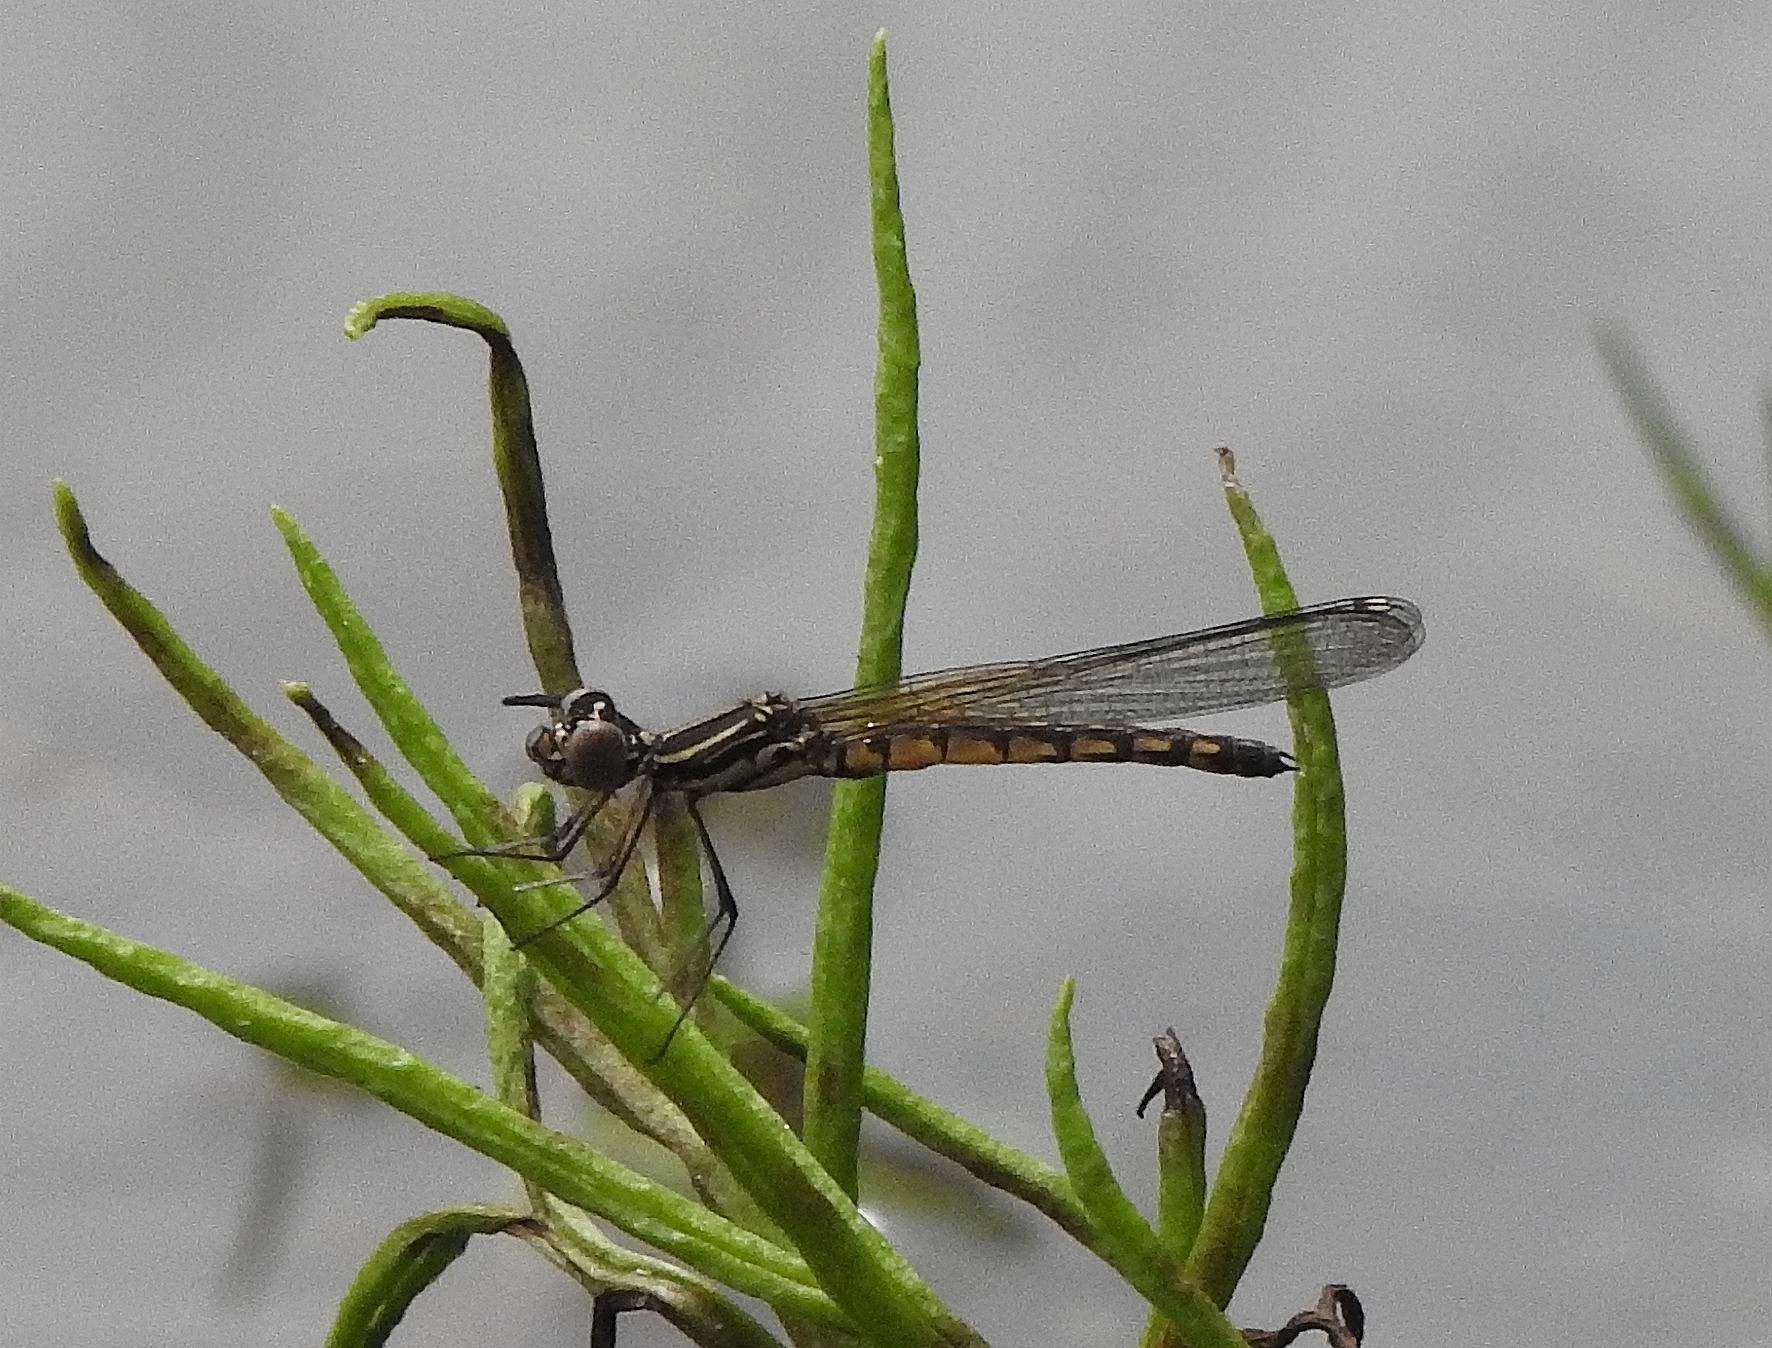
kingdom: Animalia
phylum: Arthropoda
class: Insecta
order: Odonata
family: Chlorocyphidae
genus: Libellago
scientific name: Libellago indica
